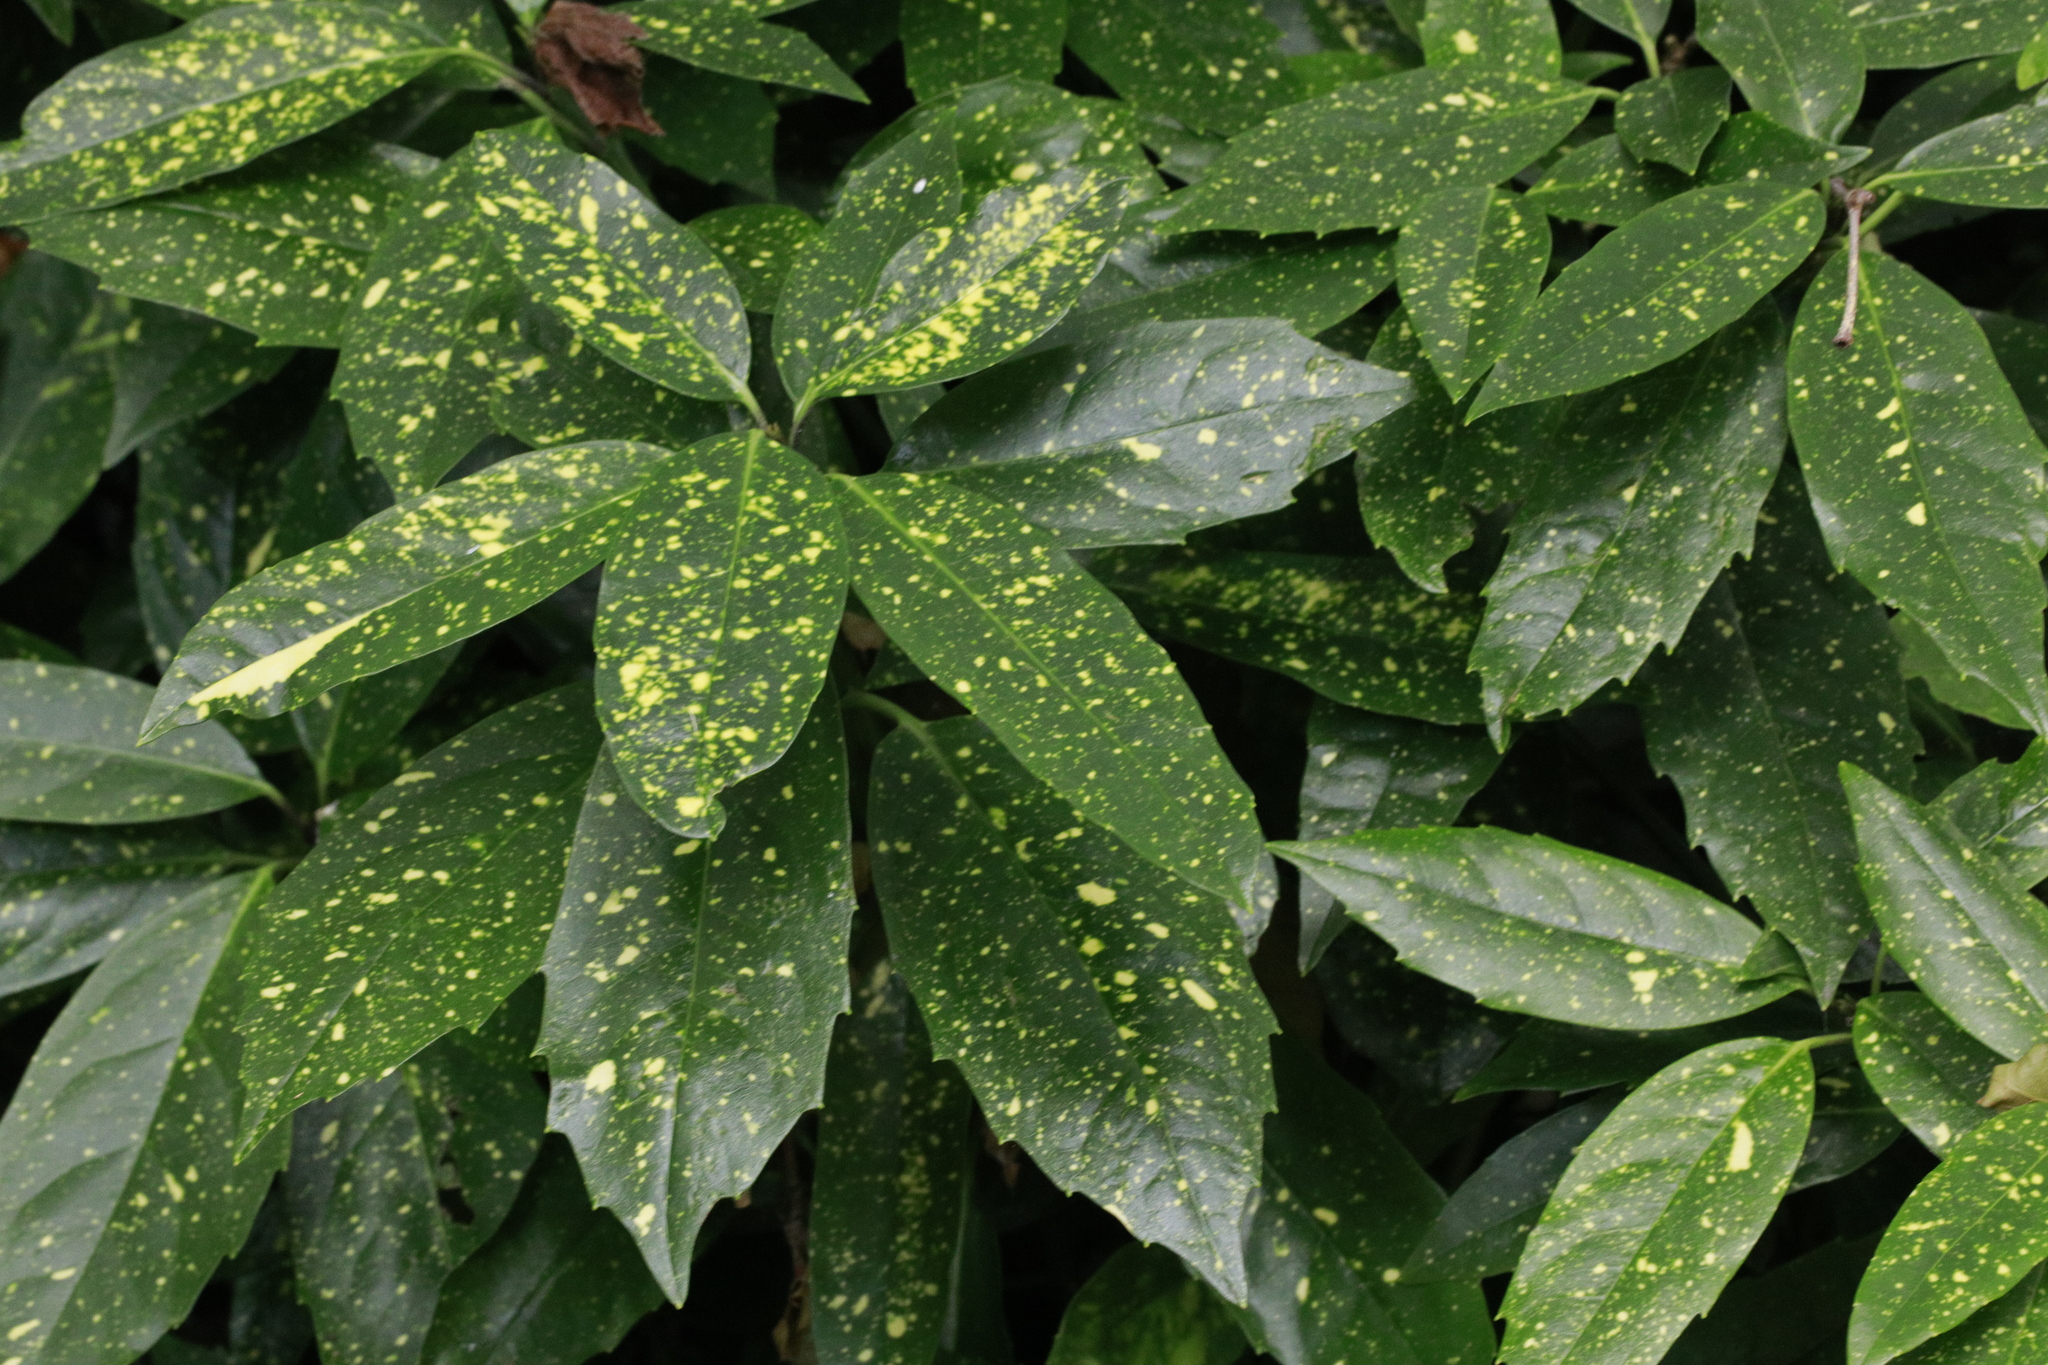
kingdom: Plantae
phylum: Tracheophyta
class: Magnoliopsida
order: Garryales
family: Garryaceae
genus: Aucuba
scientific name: Aucuba japonica
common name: Spotted-laurel
